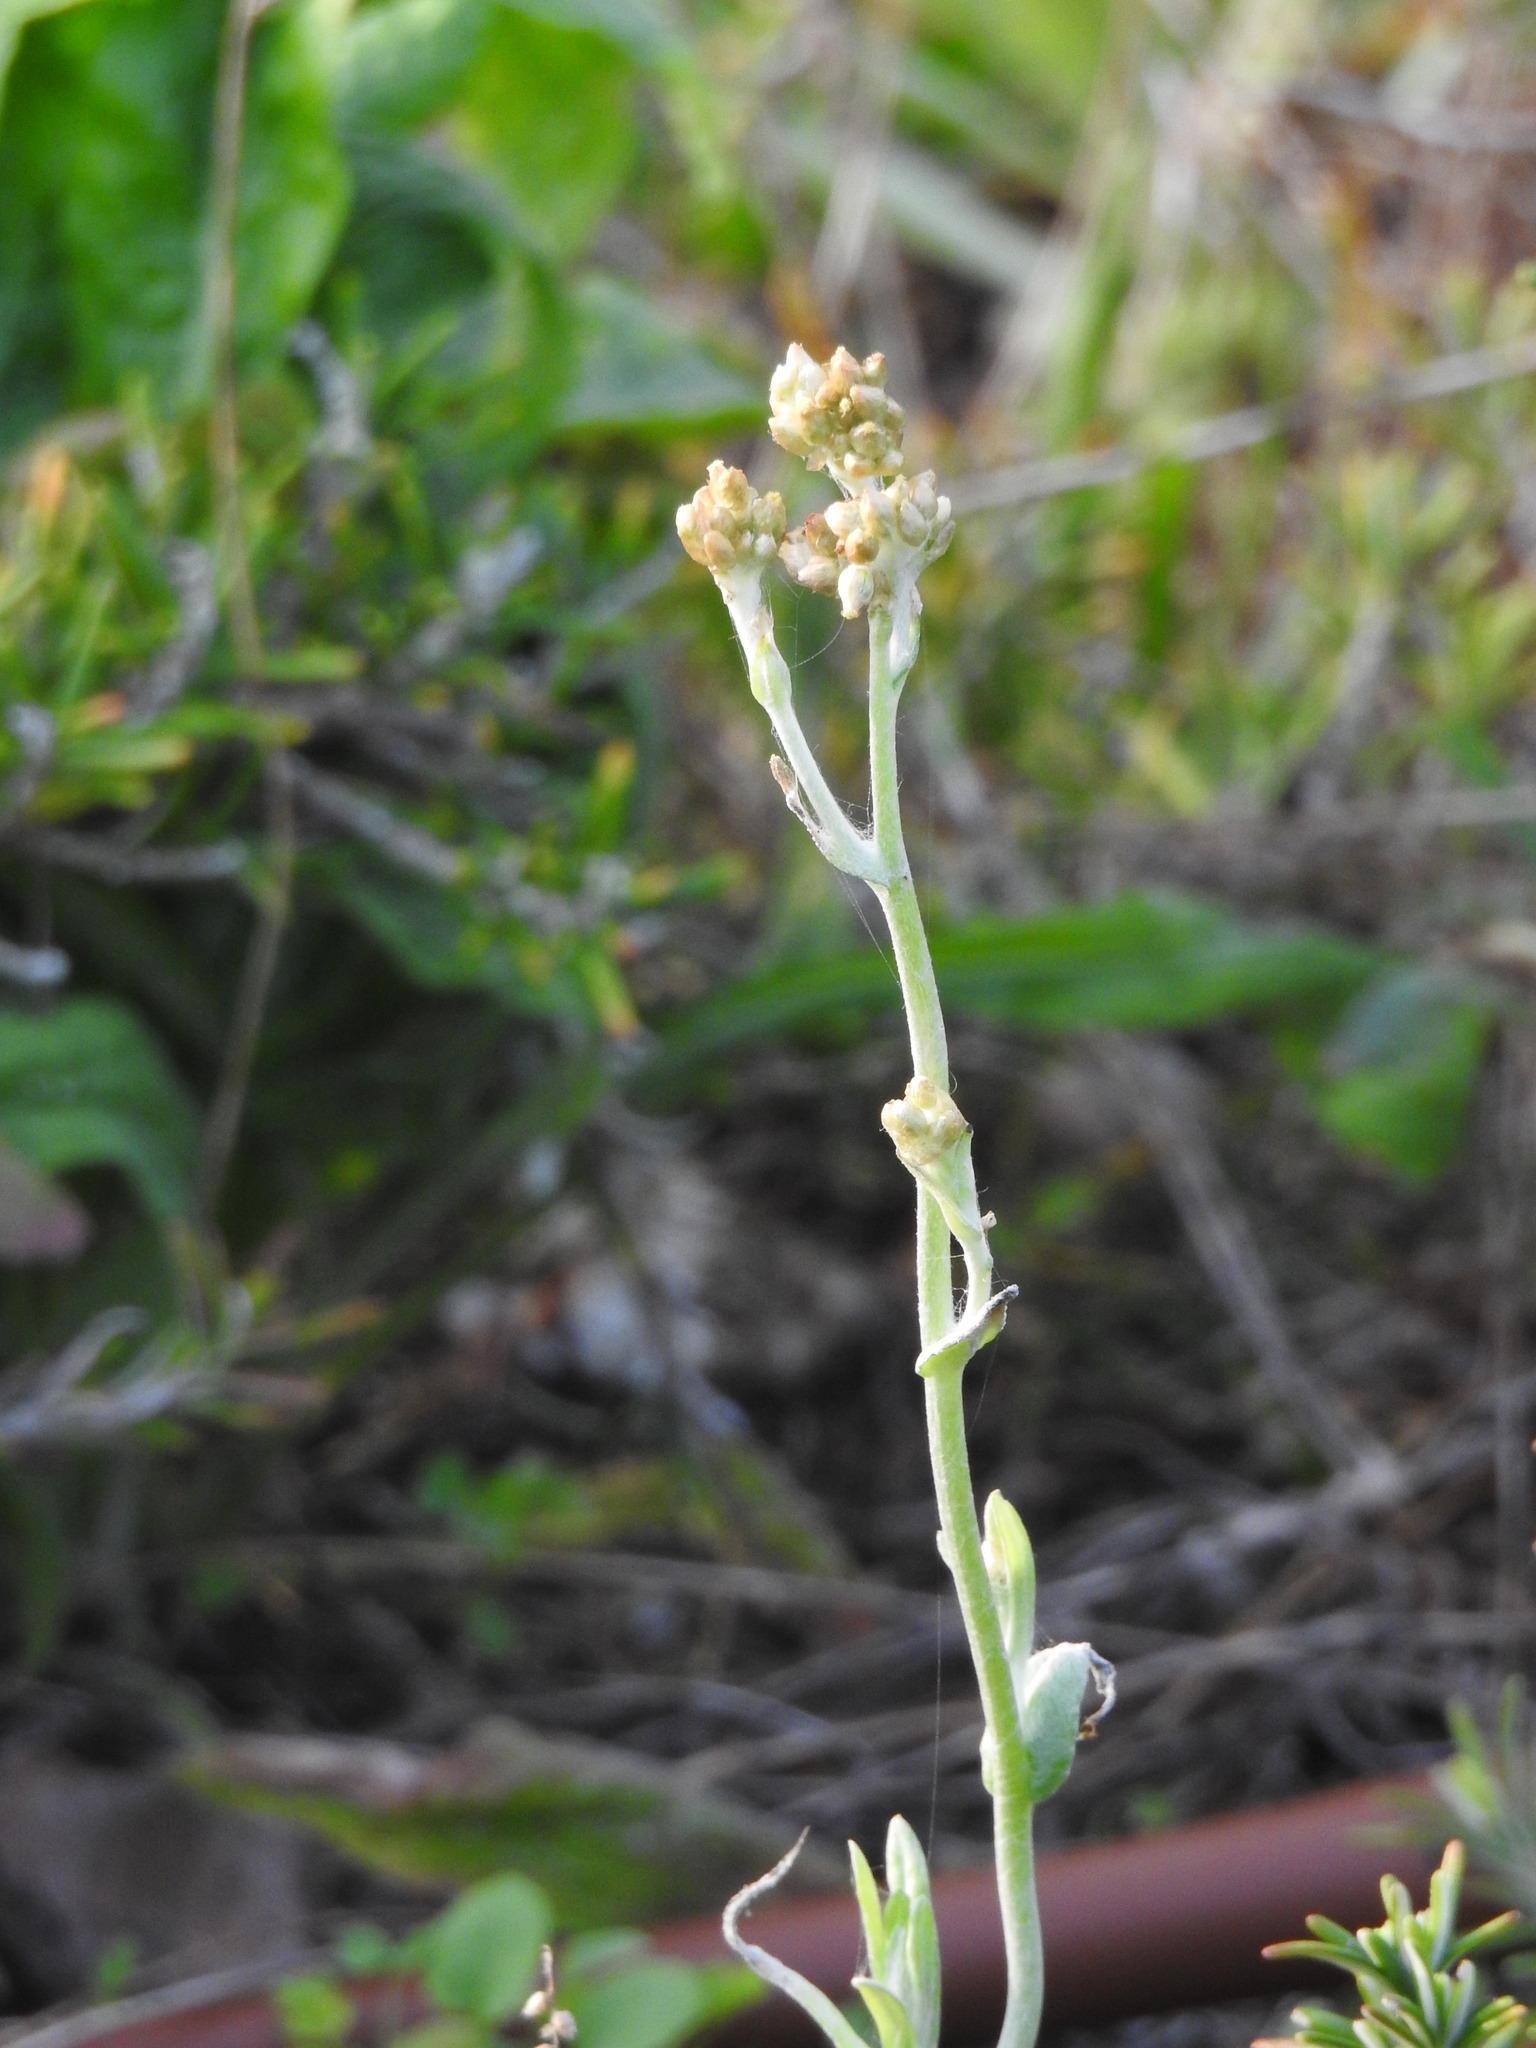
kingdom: Plantae
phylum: Tracheophyta
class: Magnoliopsida
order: Asterales
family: Asteraceae
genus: Helichrysum
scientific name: Helichrysum luteoalbum
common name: Daisy
